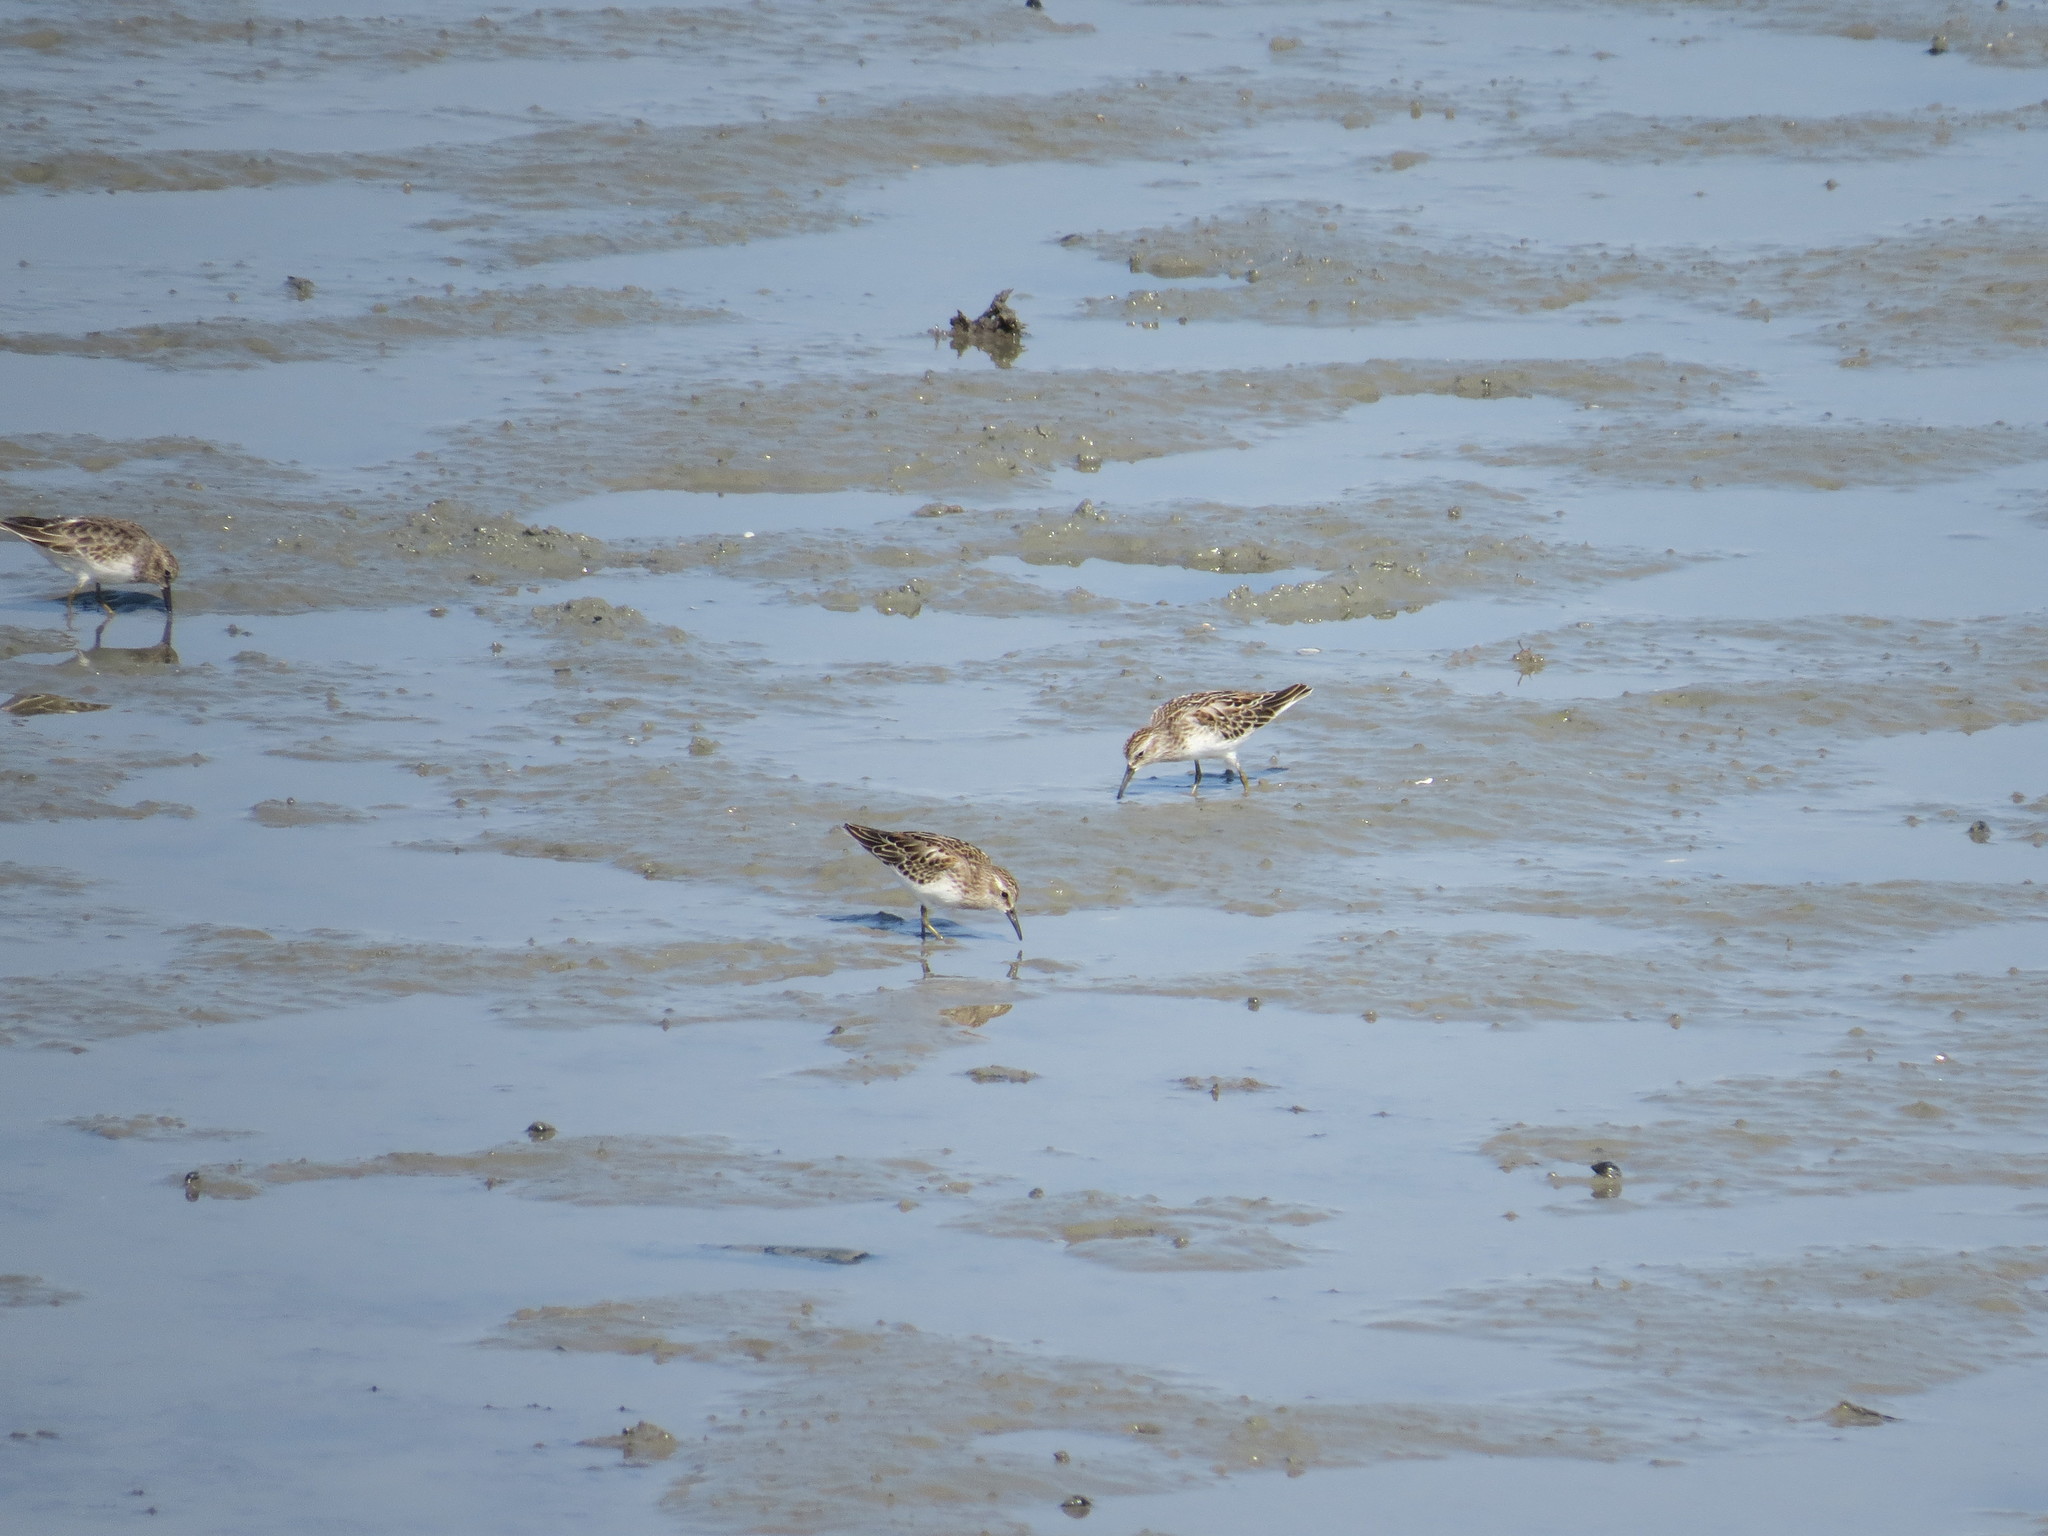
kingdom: Animalia
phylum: Chordata
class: Aves
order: Charadriiformes
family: Scolopacidae
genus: Calidris
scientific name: Calidris minutilla
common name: Least sandpiper
